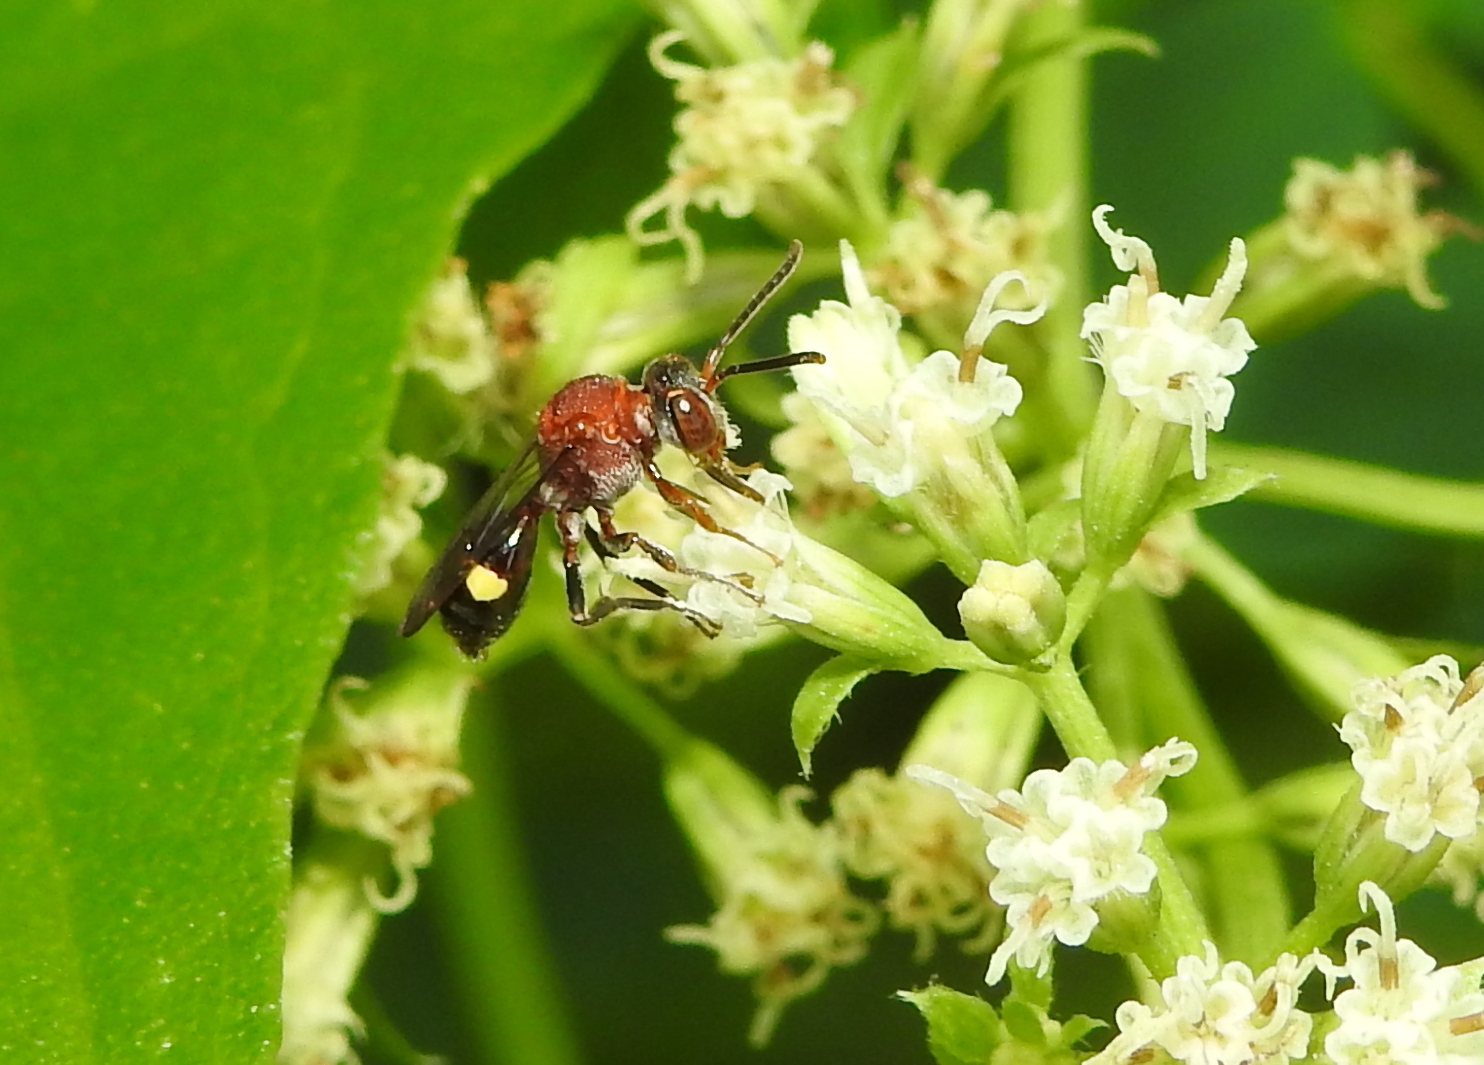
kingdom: Animalia
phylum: Arthropoda
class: Insecta
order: Hymenoptera
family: Apidae
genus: Nomada
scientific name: Nomada malayana
